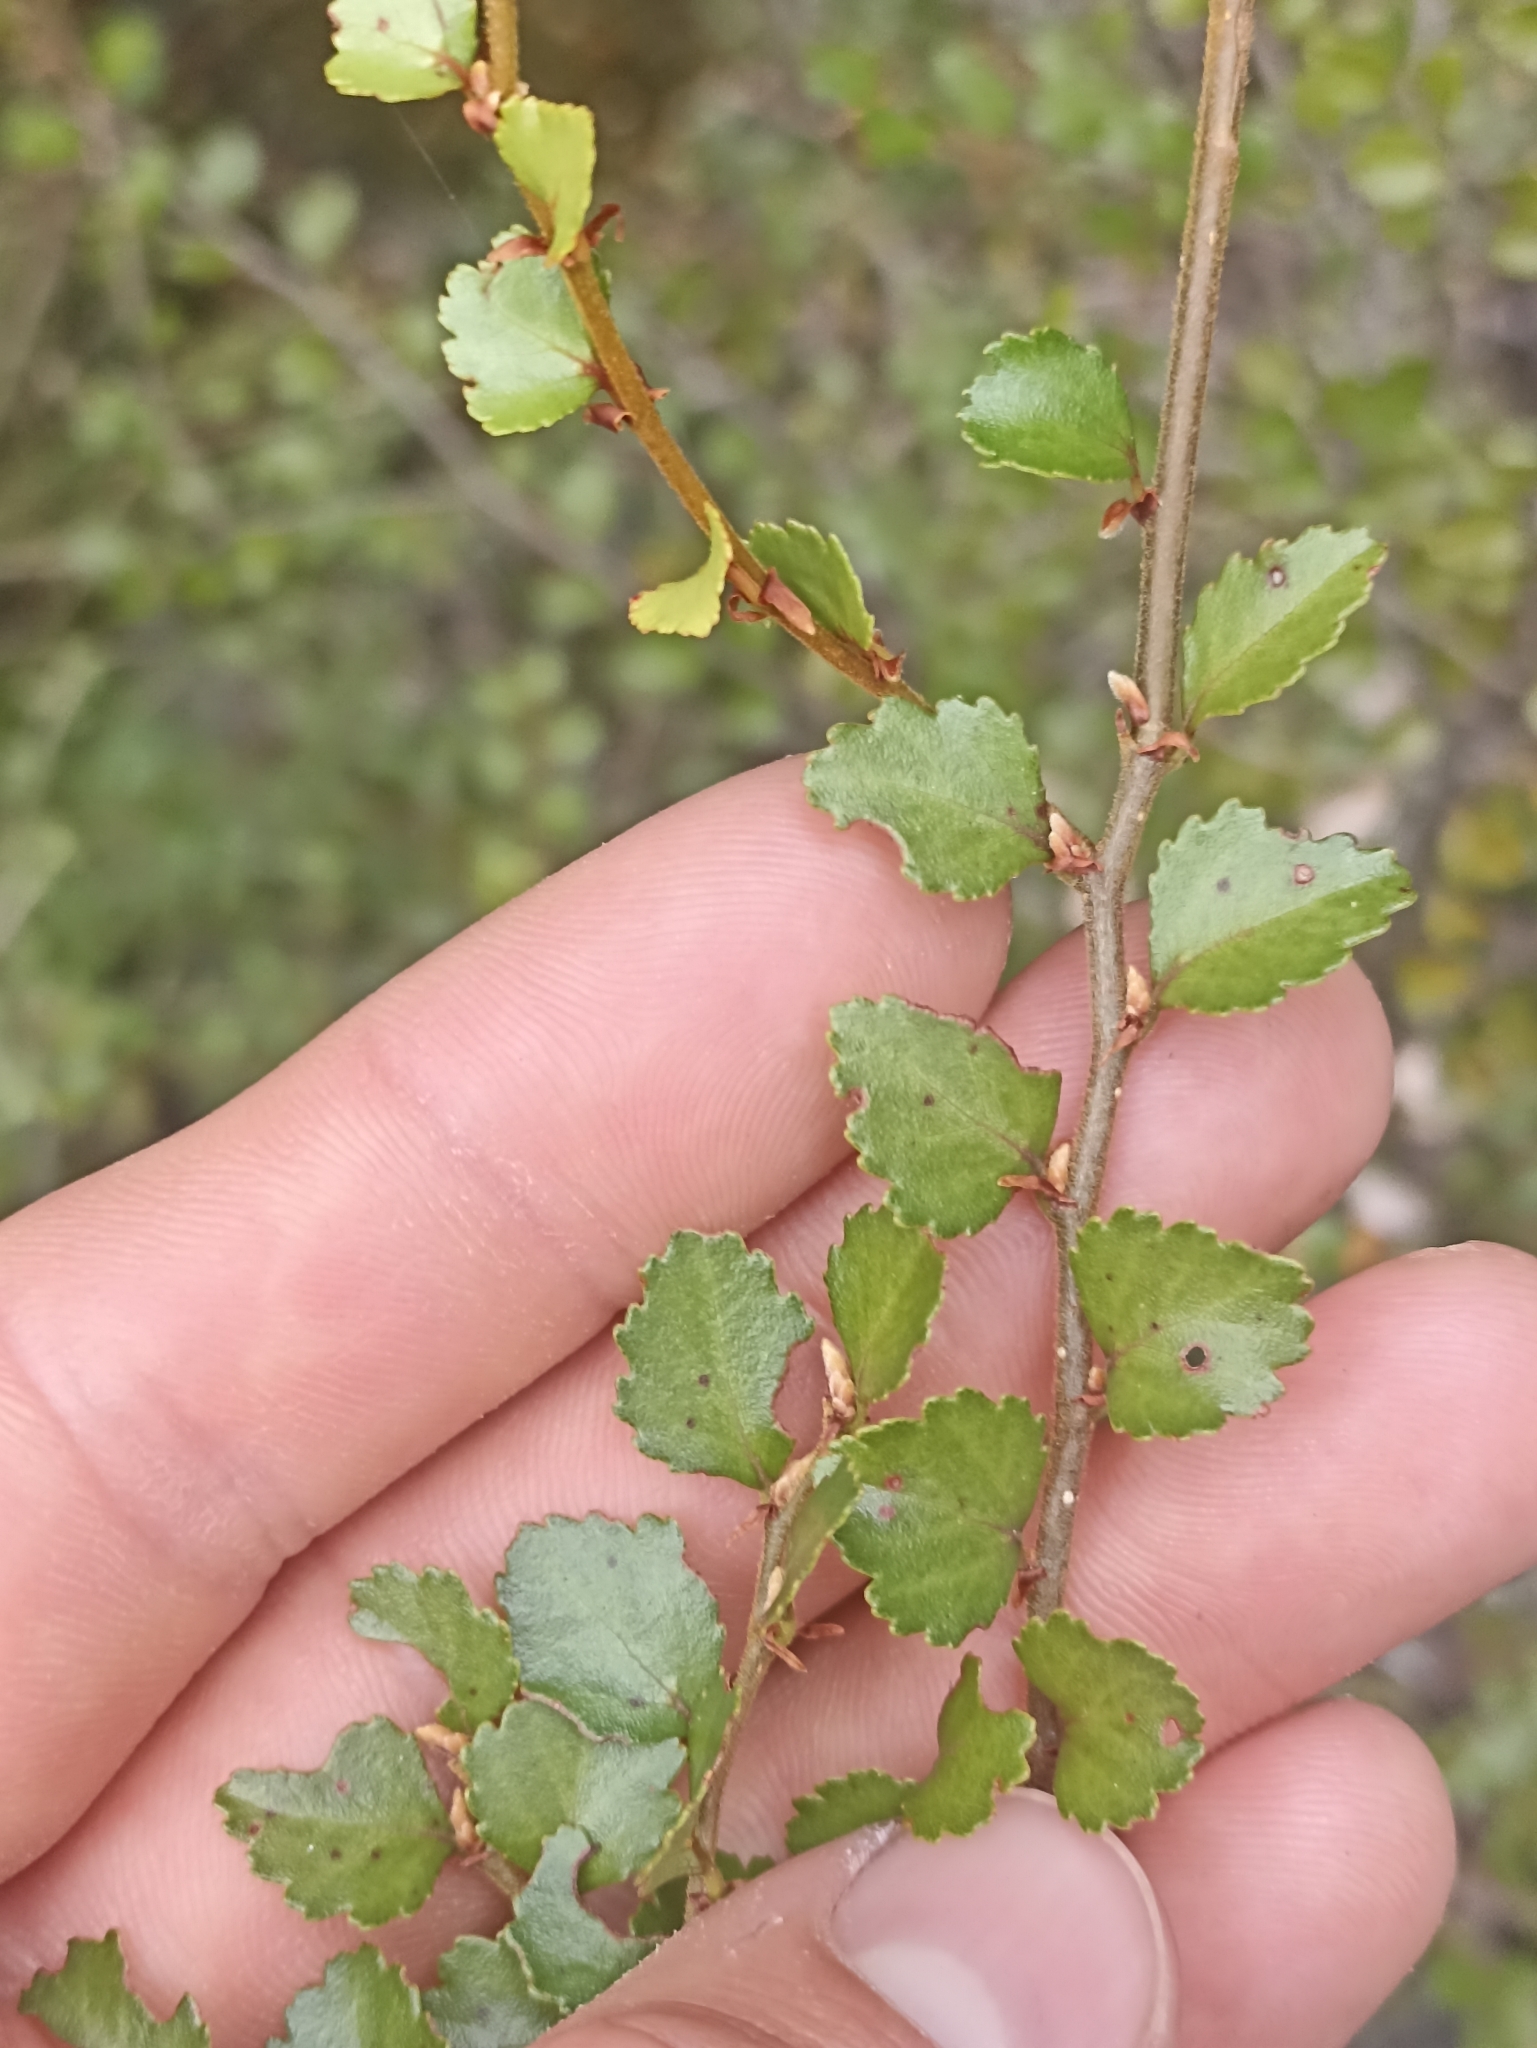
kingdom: Plantae
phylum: Tracheophyta
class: Magnoliopsida
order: Fagales
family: Nothofagaceae
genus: Nothofagus
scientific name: Nothofagus menziesii
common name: Silver beech
